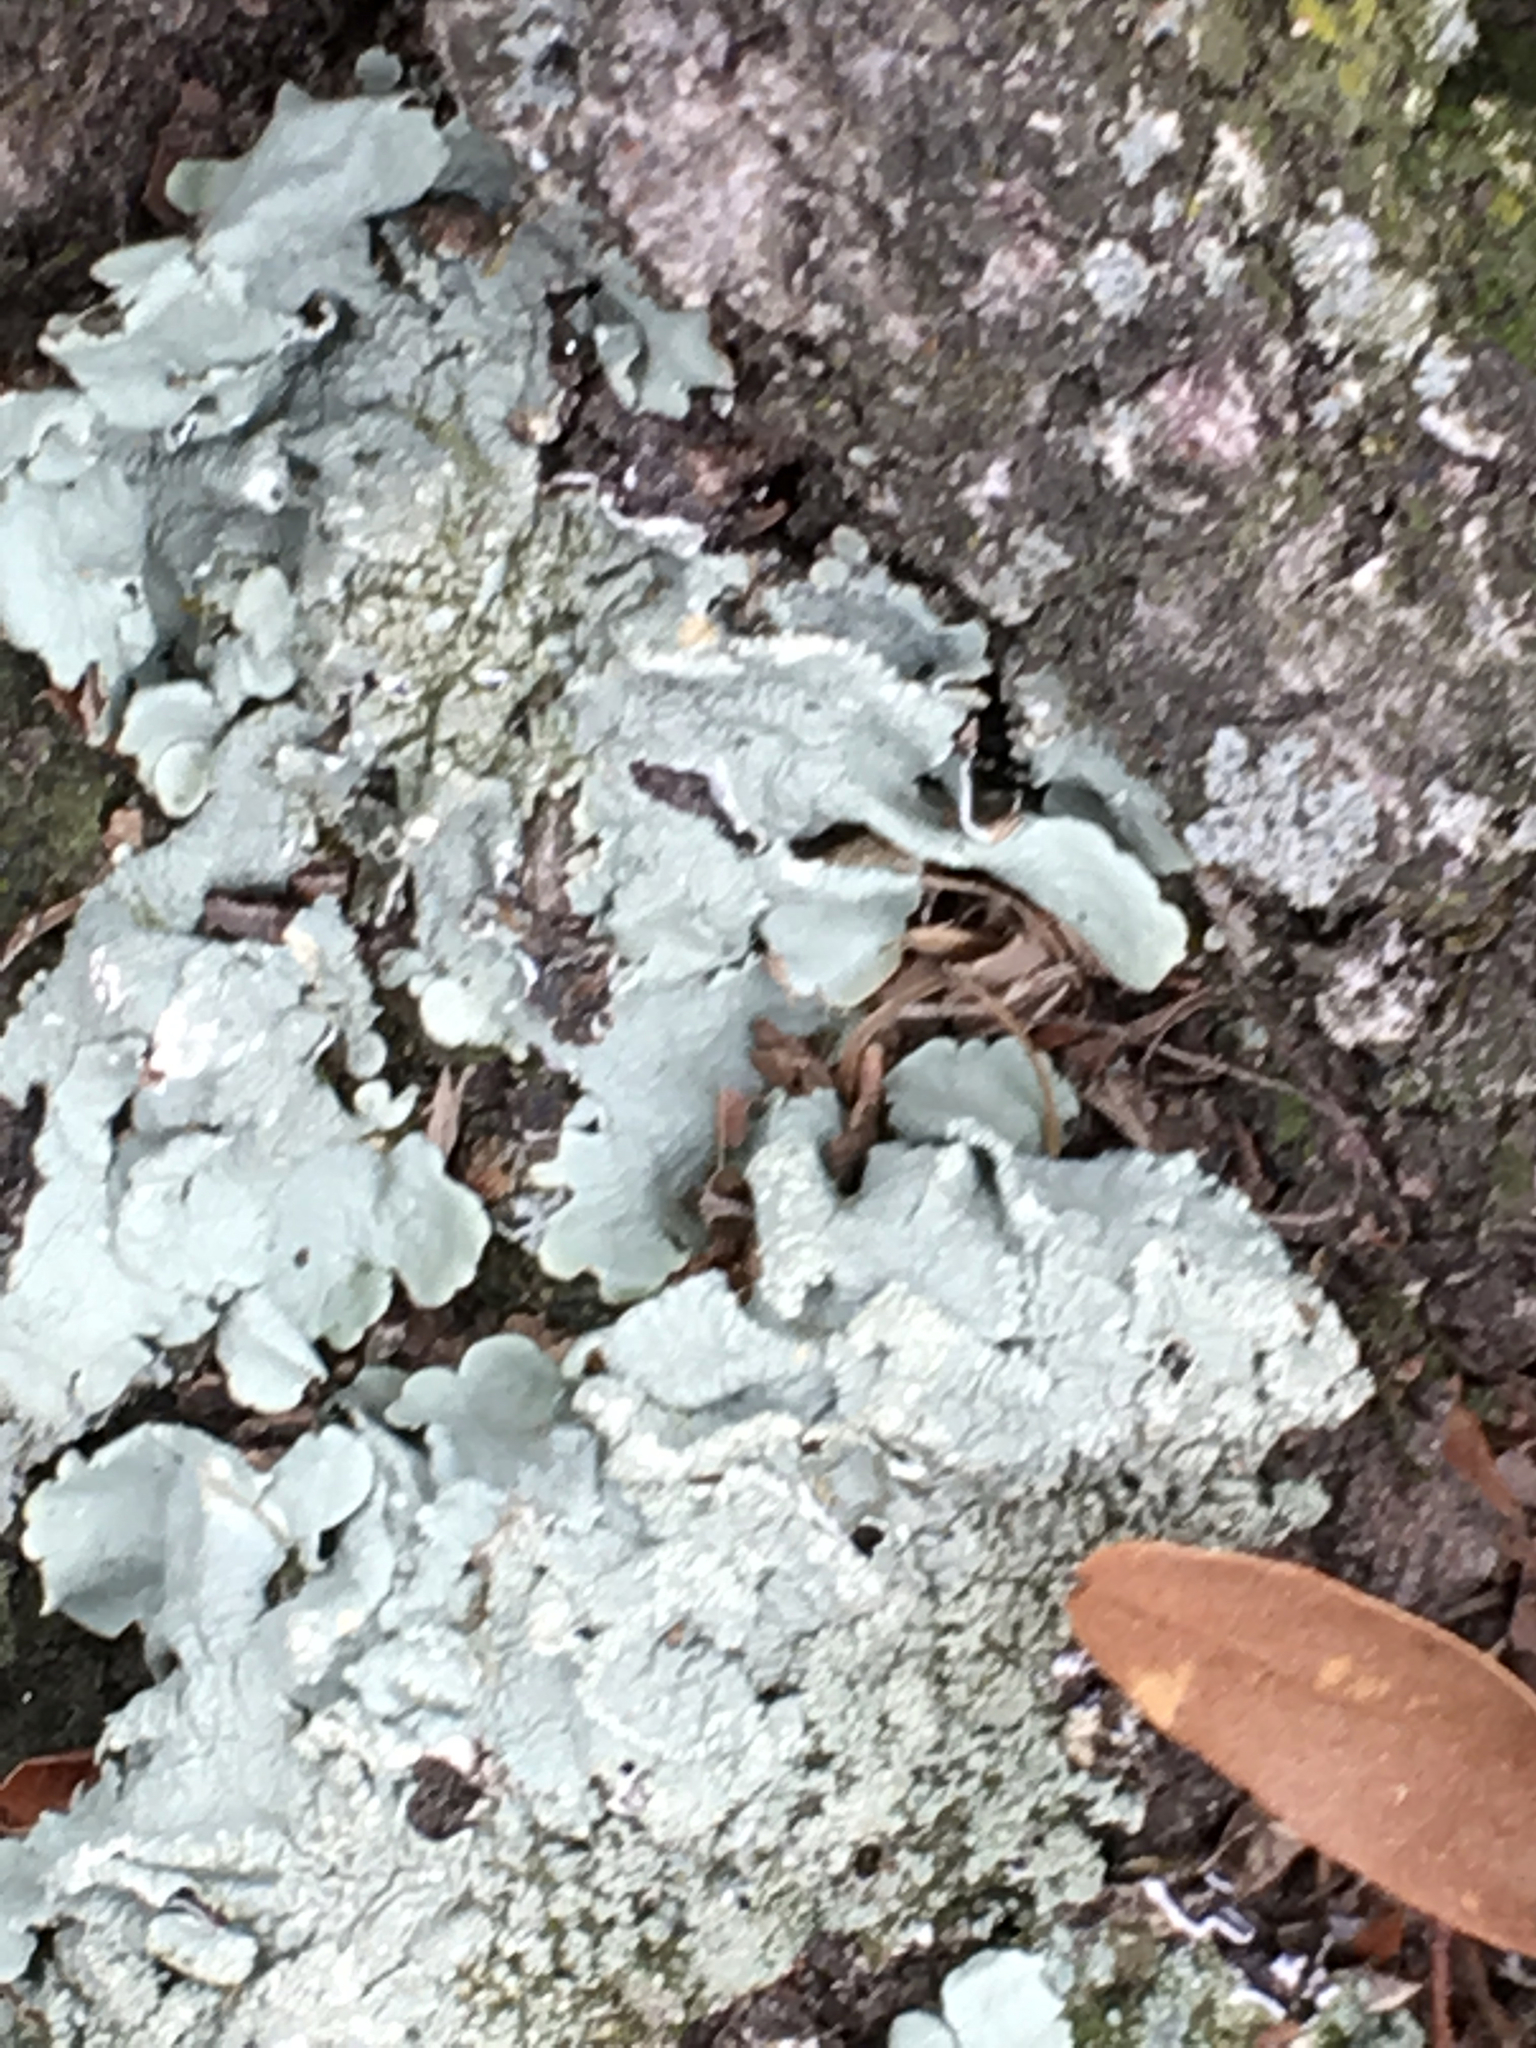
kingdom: Fungi
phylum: Ascomycota
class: Lecanoromycetes
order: Lecanorales
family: Parmeliaceae
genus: Flavoparmelia
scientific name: Flavoparmelia caperata
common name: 40-mile per hour lichen
